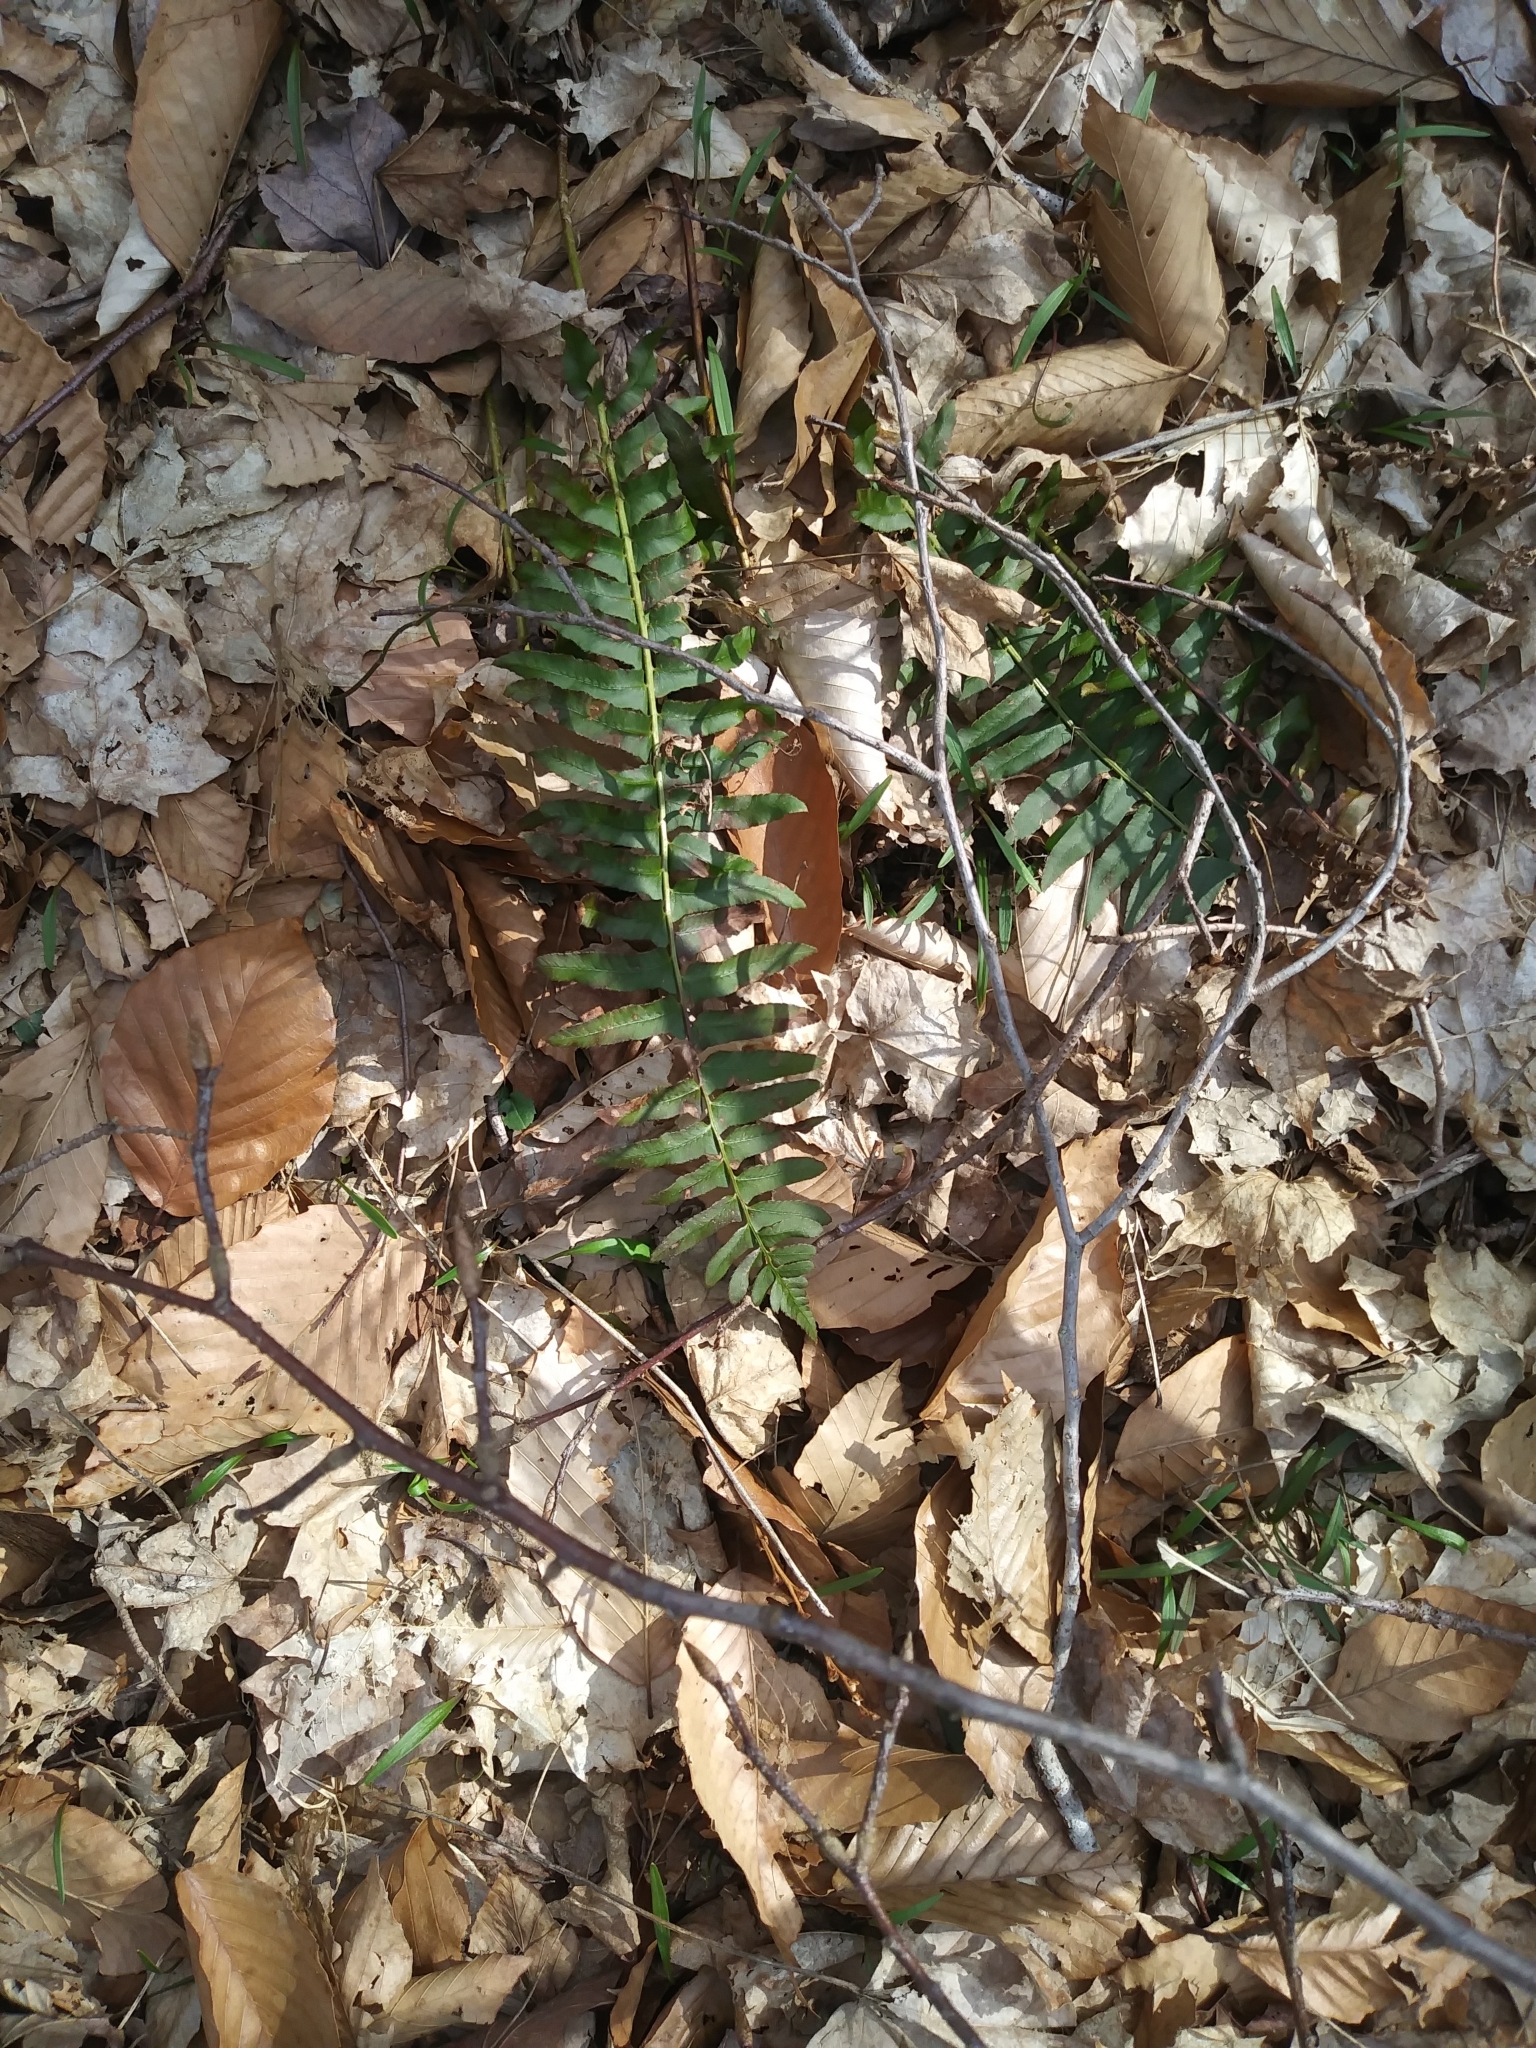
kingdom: Plantae
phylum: Tracheophyta
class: Polypodiopsida
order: Polypodiales
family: Dryopteridaceae
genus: Polystichum
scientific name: Polystichum acrostichoides
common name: Christmas fern
